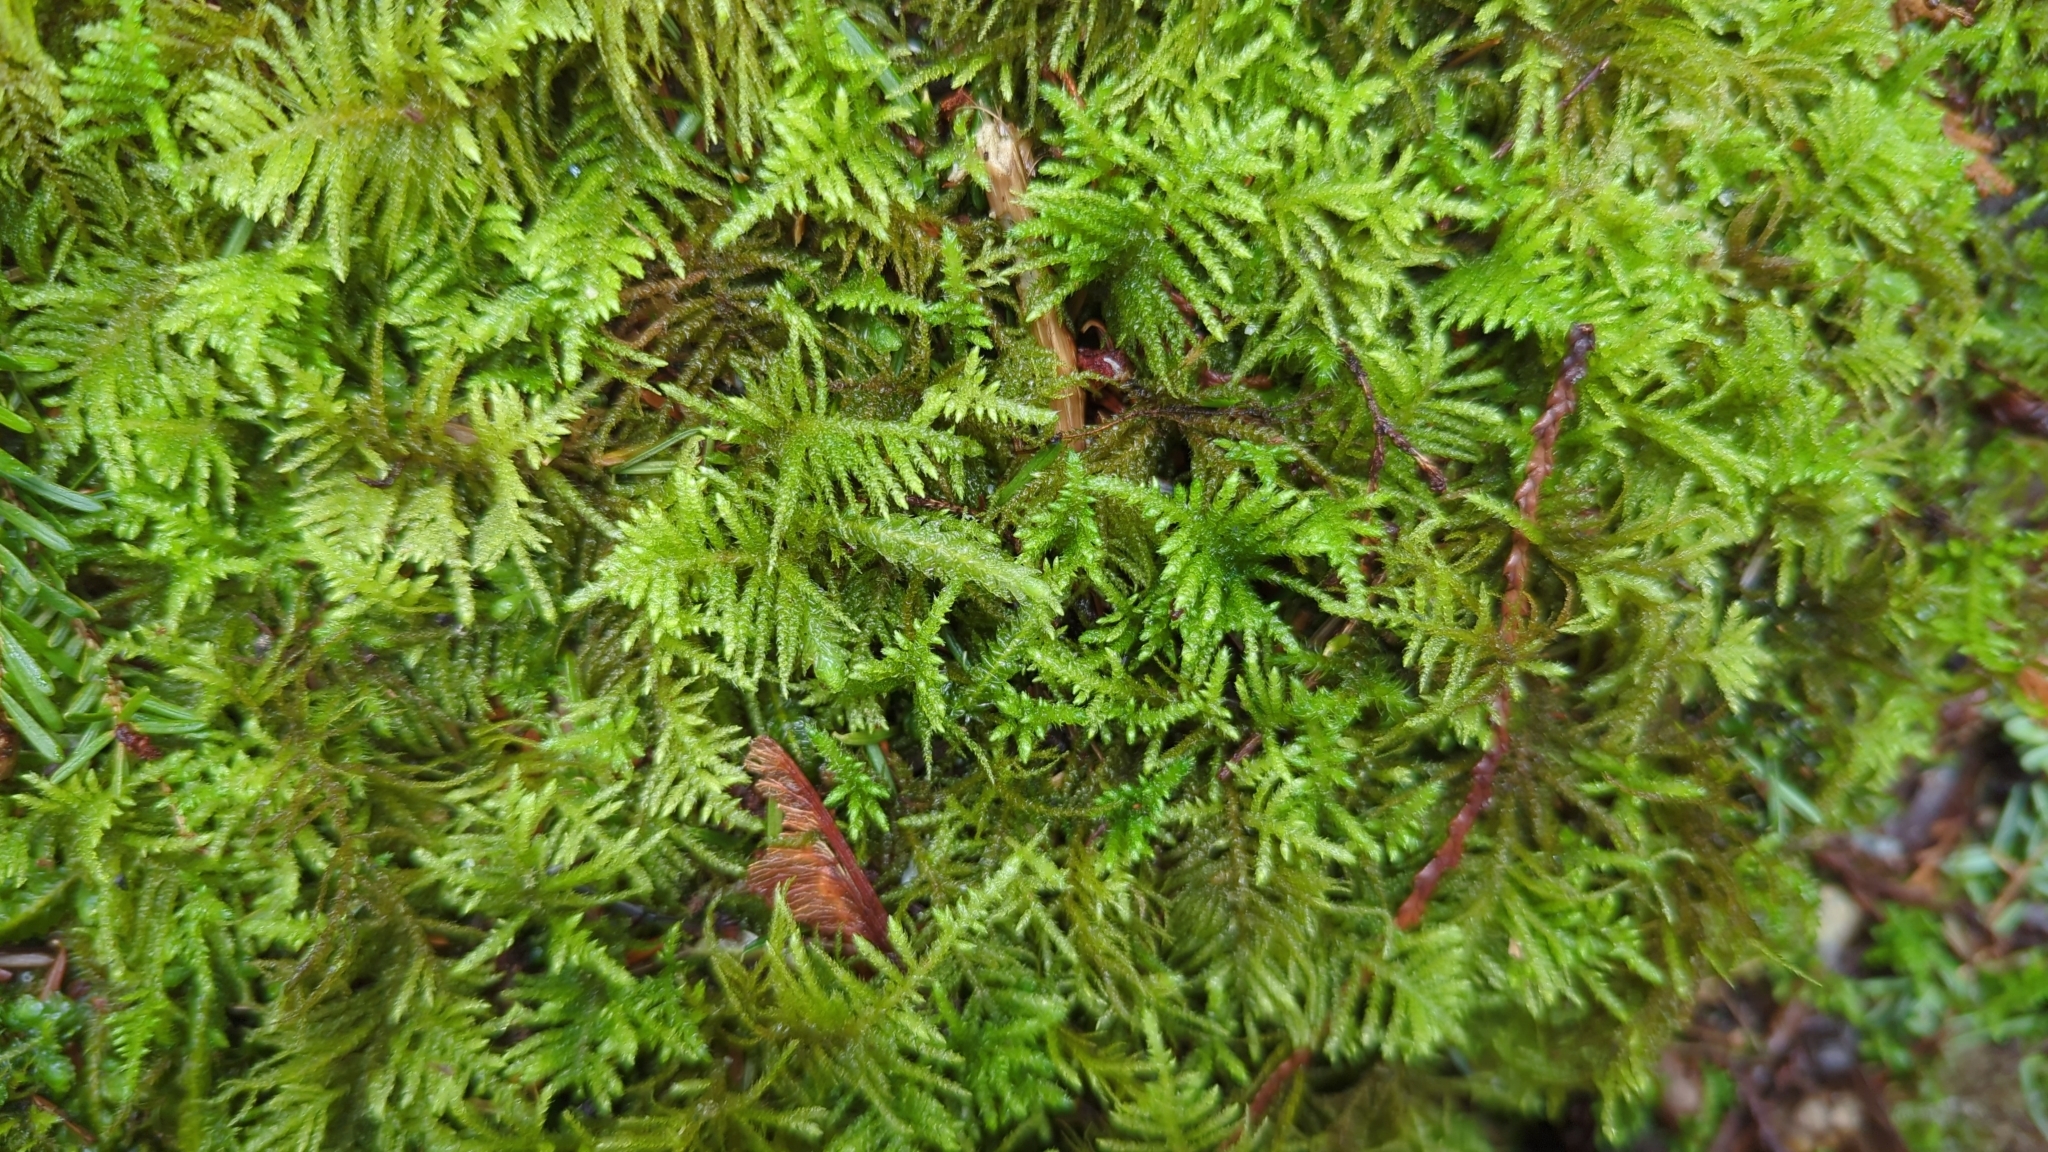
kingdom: Plantae
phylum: Bryophyta
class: Bryopsida
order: Hypnales
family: Brachytheciaceae
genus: Kindbergia
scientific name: Kindbergia oregana
